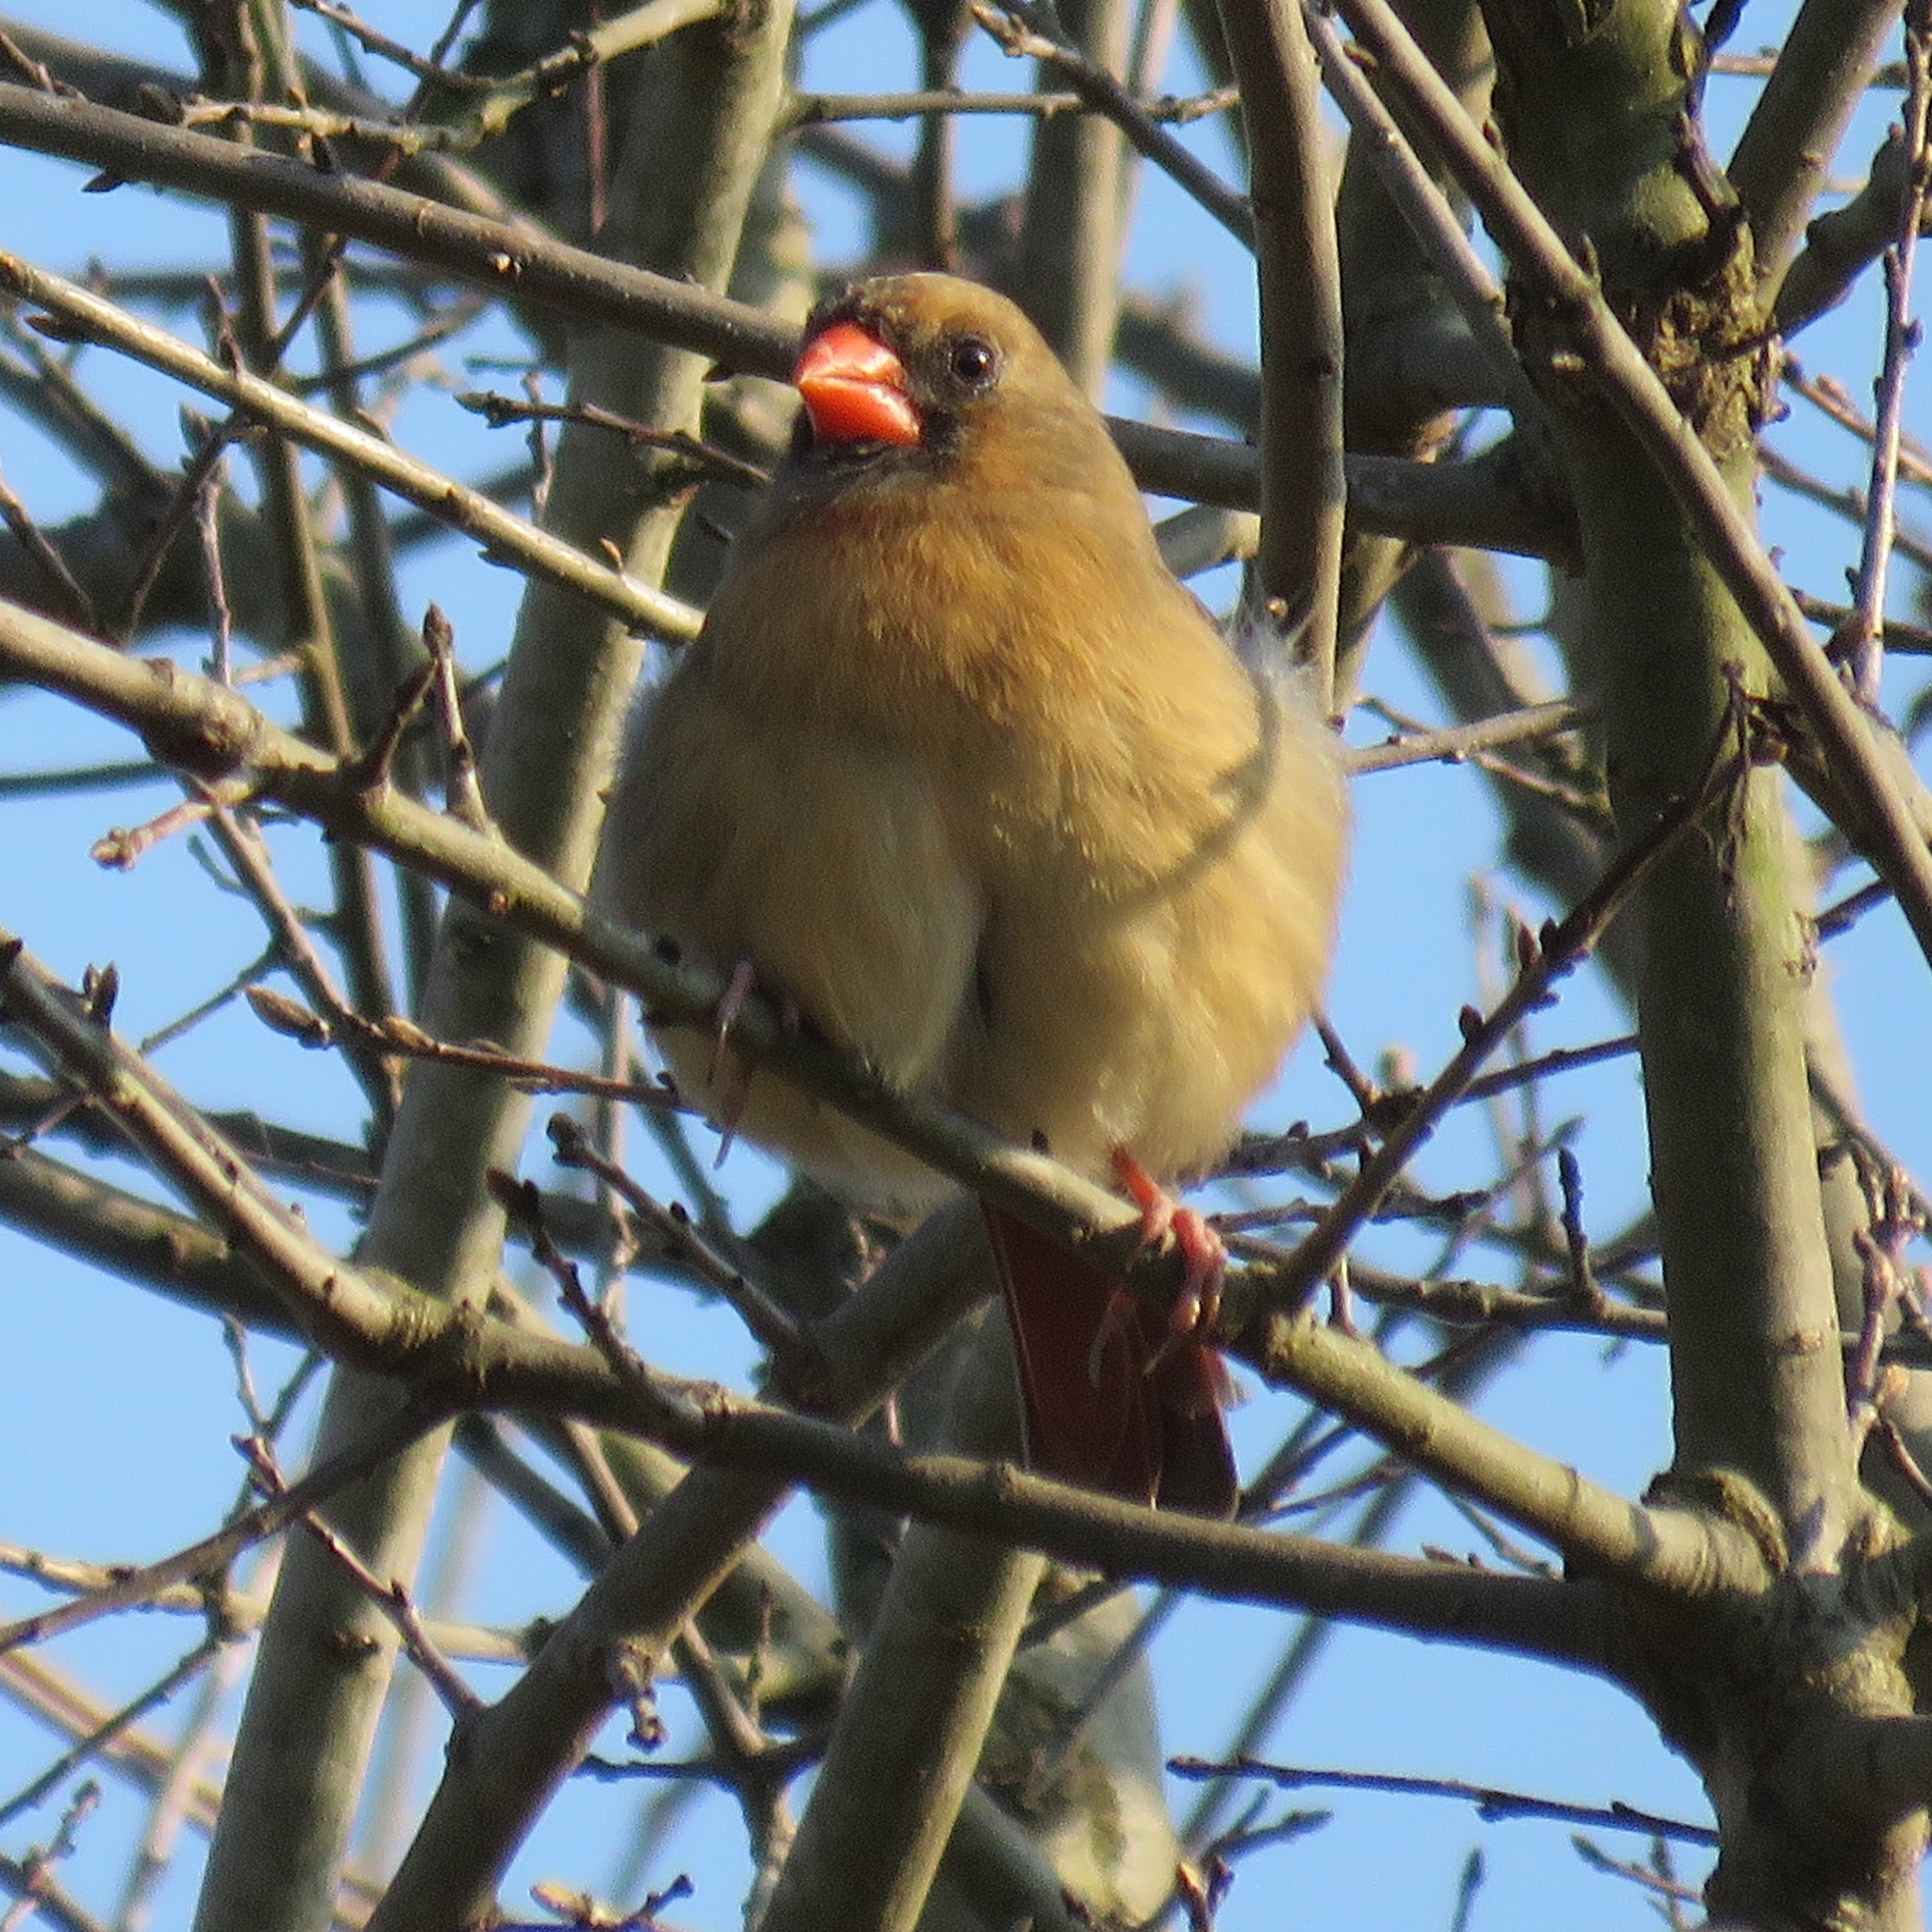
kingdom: Animalia
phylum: Chordata
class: Aves
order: Passeriformes
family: Cardinalidae
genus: Cardinalis
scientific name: Cardinalis cardinalis
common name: Northern cardinal
